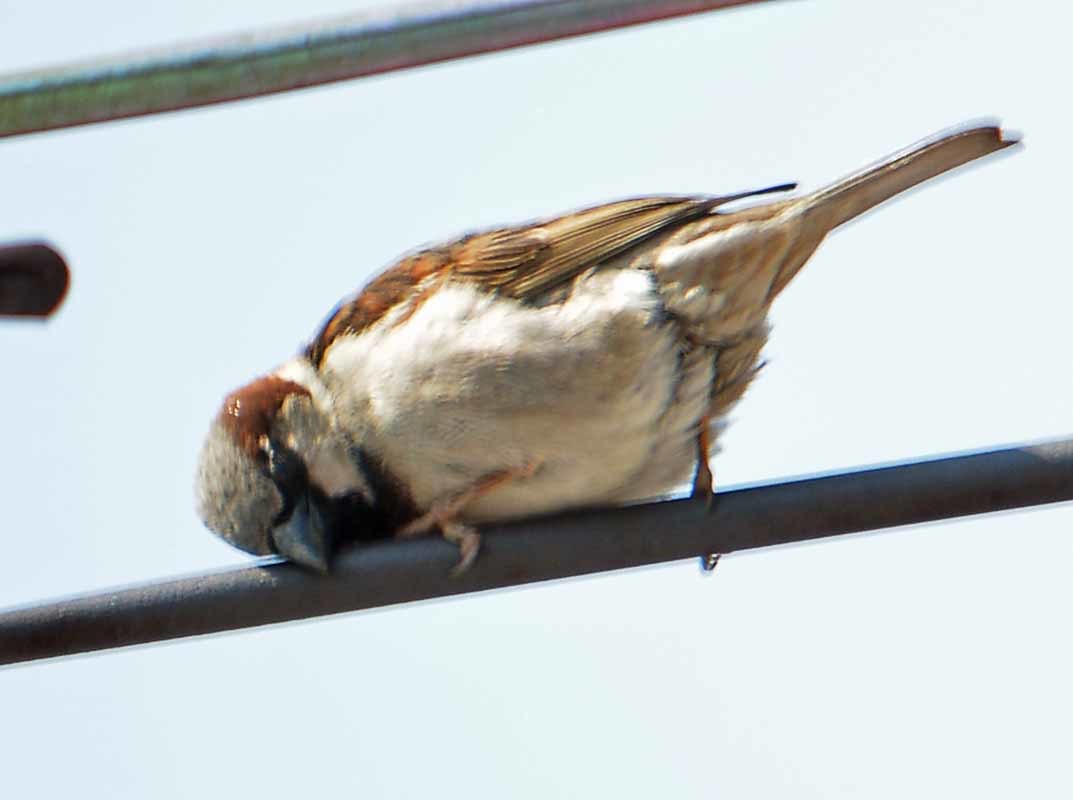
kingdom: Animalia
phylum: Chordata
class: Aves
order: Passeriformes
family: Passeridae
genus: Passer
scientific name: Passer domesticus
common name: House sparrow
